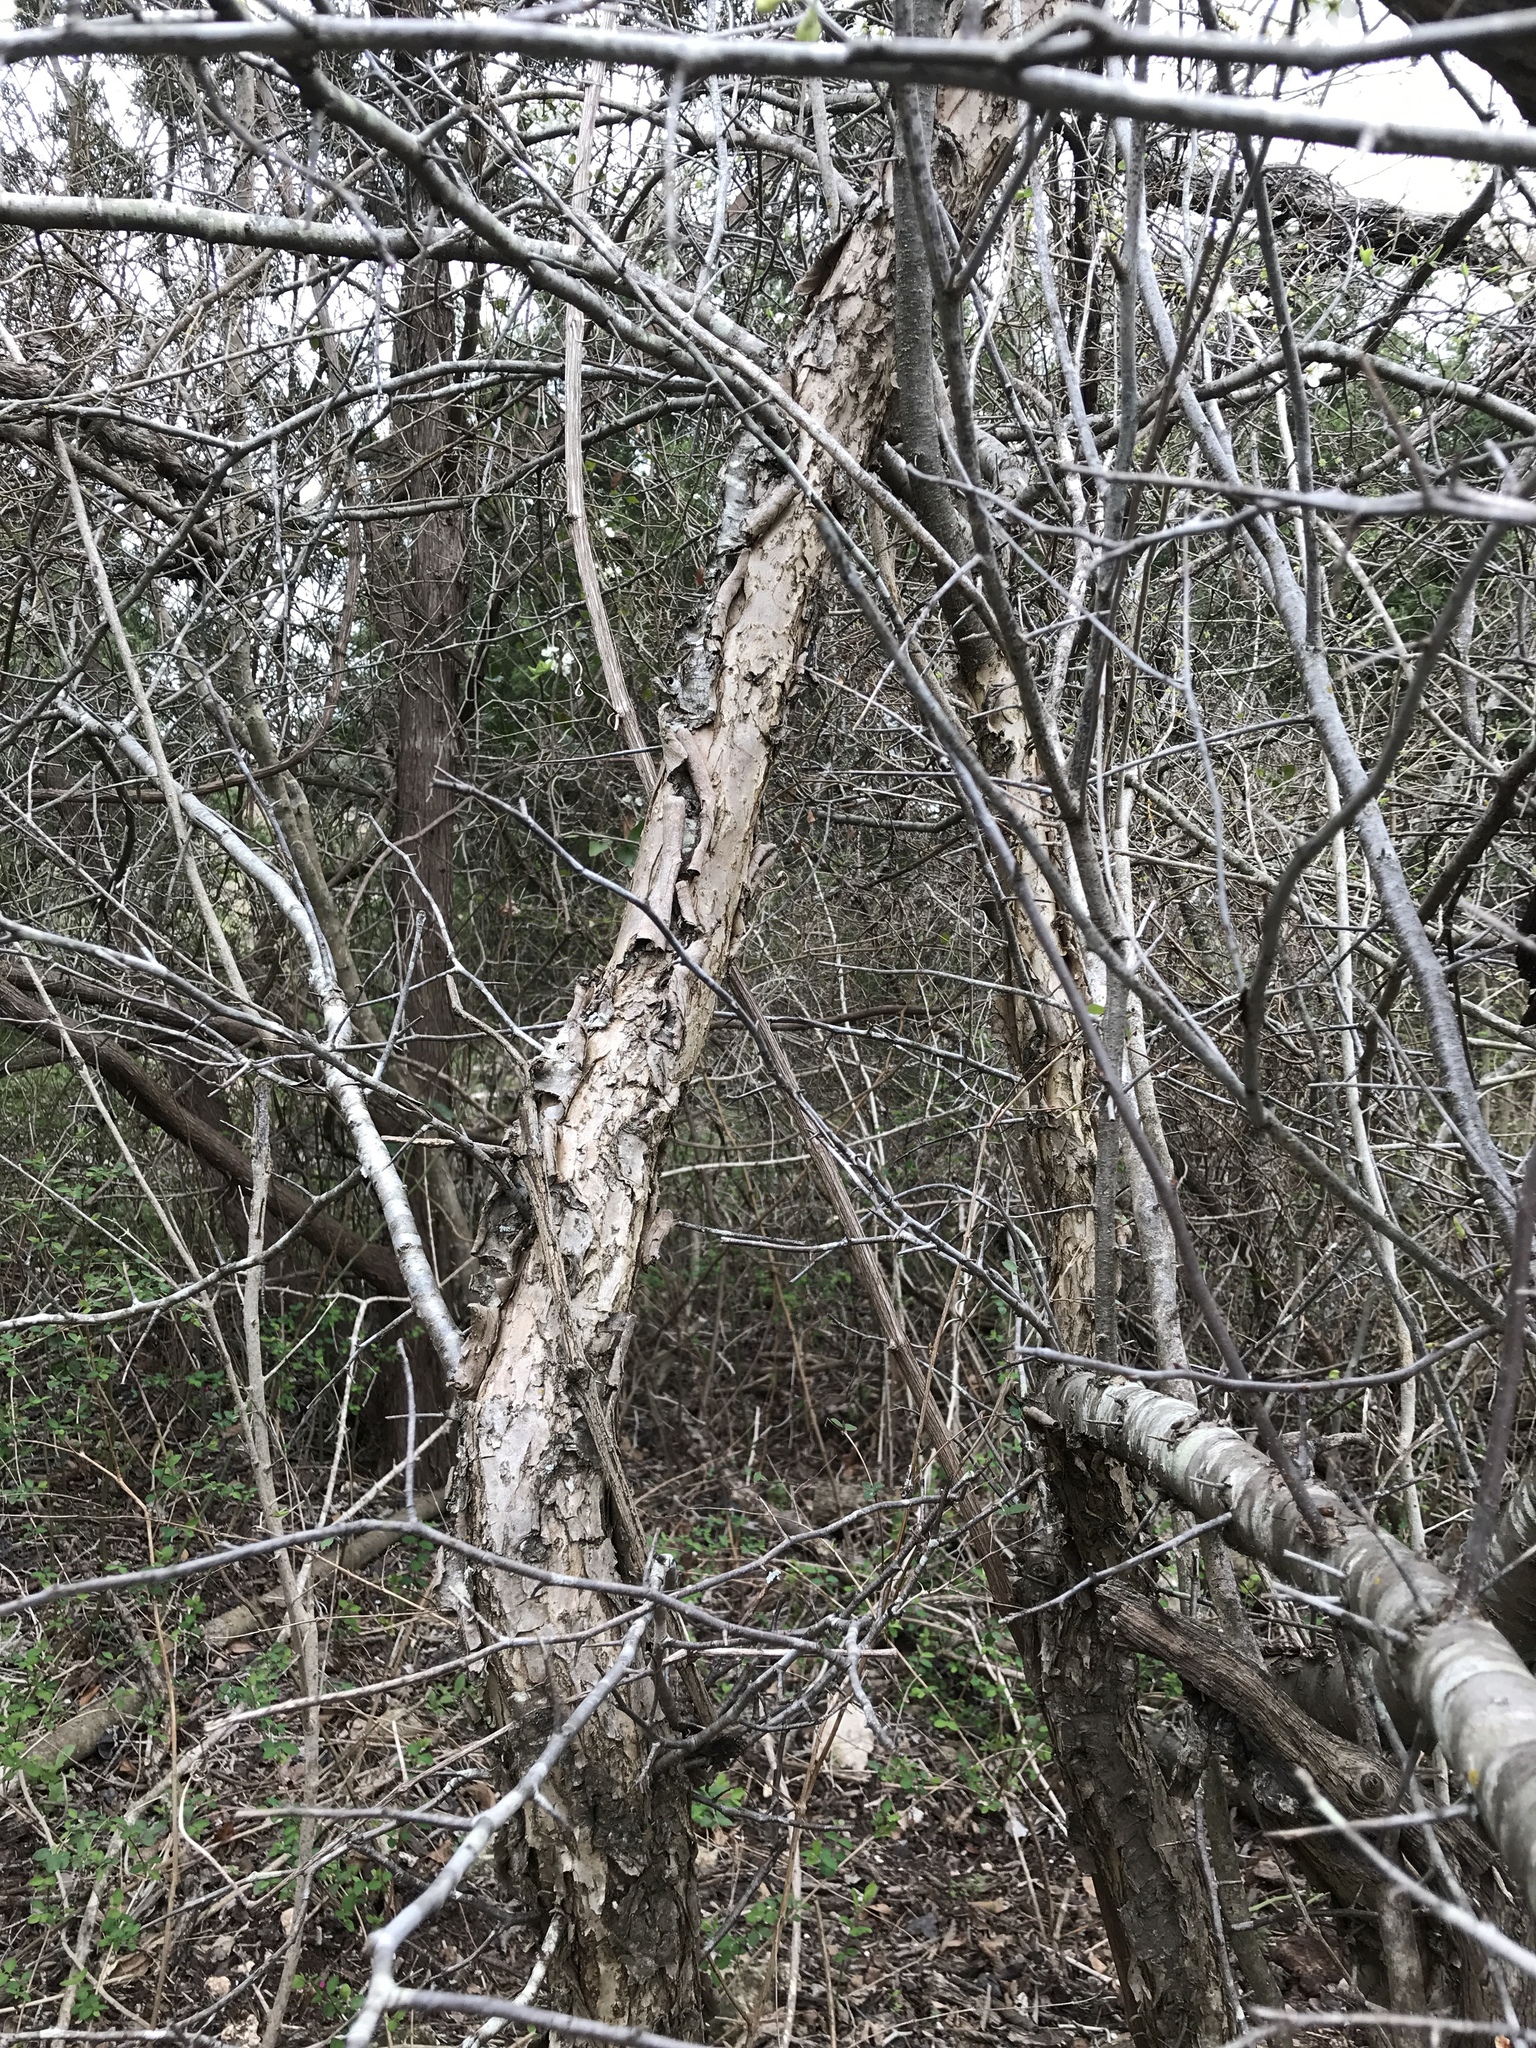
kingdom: Plantae
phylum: Tracheophyta
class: Magnoliopsida
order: Rosales
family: Rosaceae
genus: Prunus
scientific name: Prunus mexicana
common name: Mexican plum
